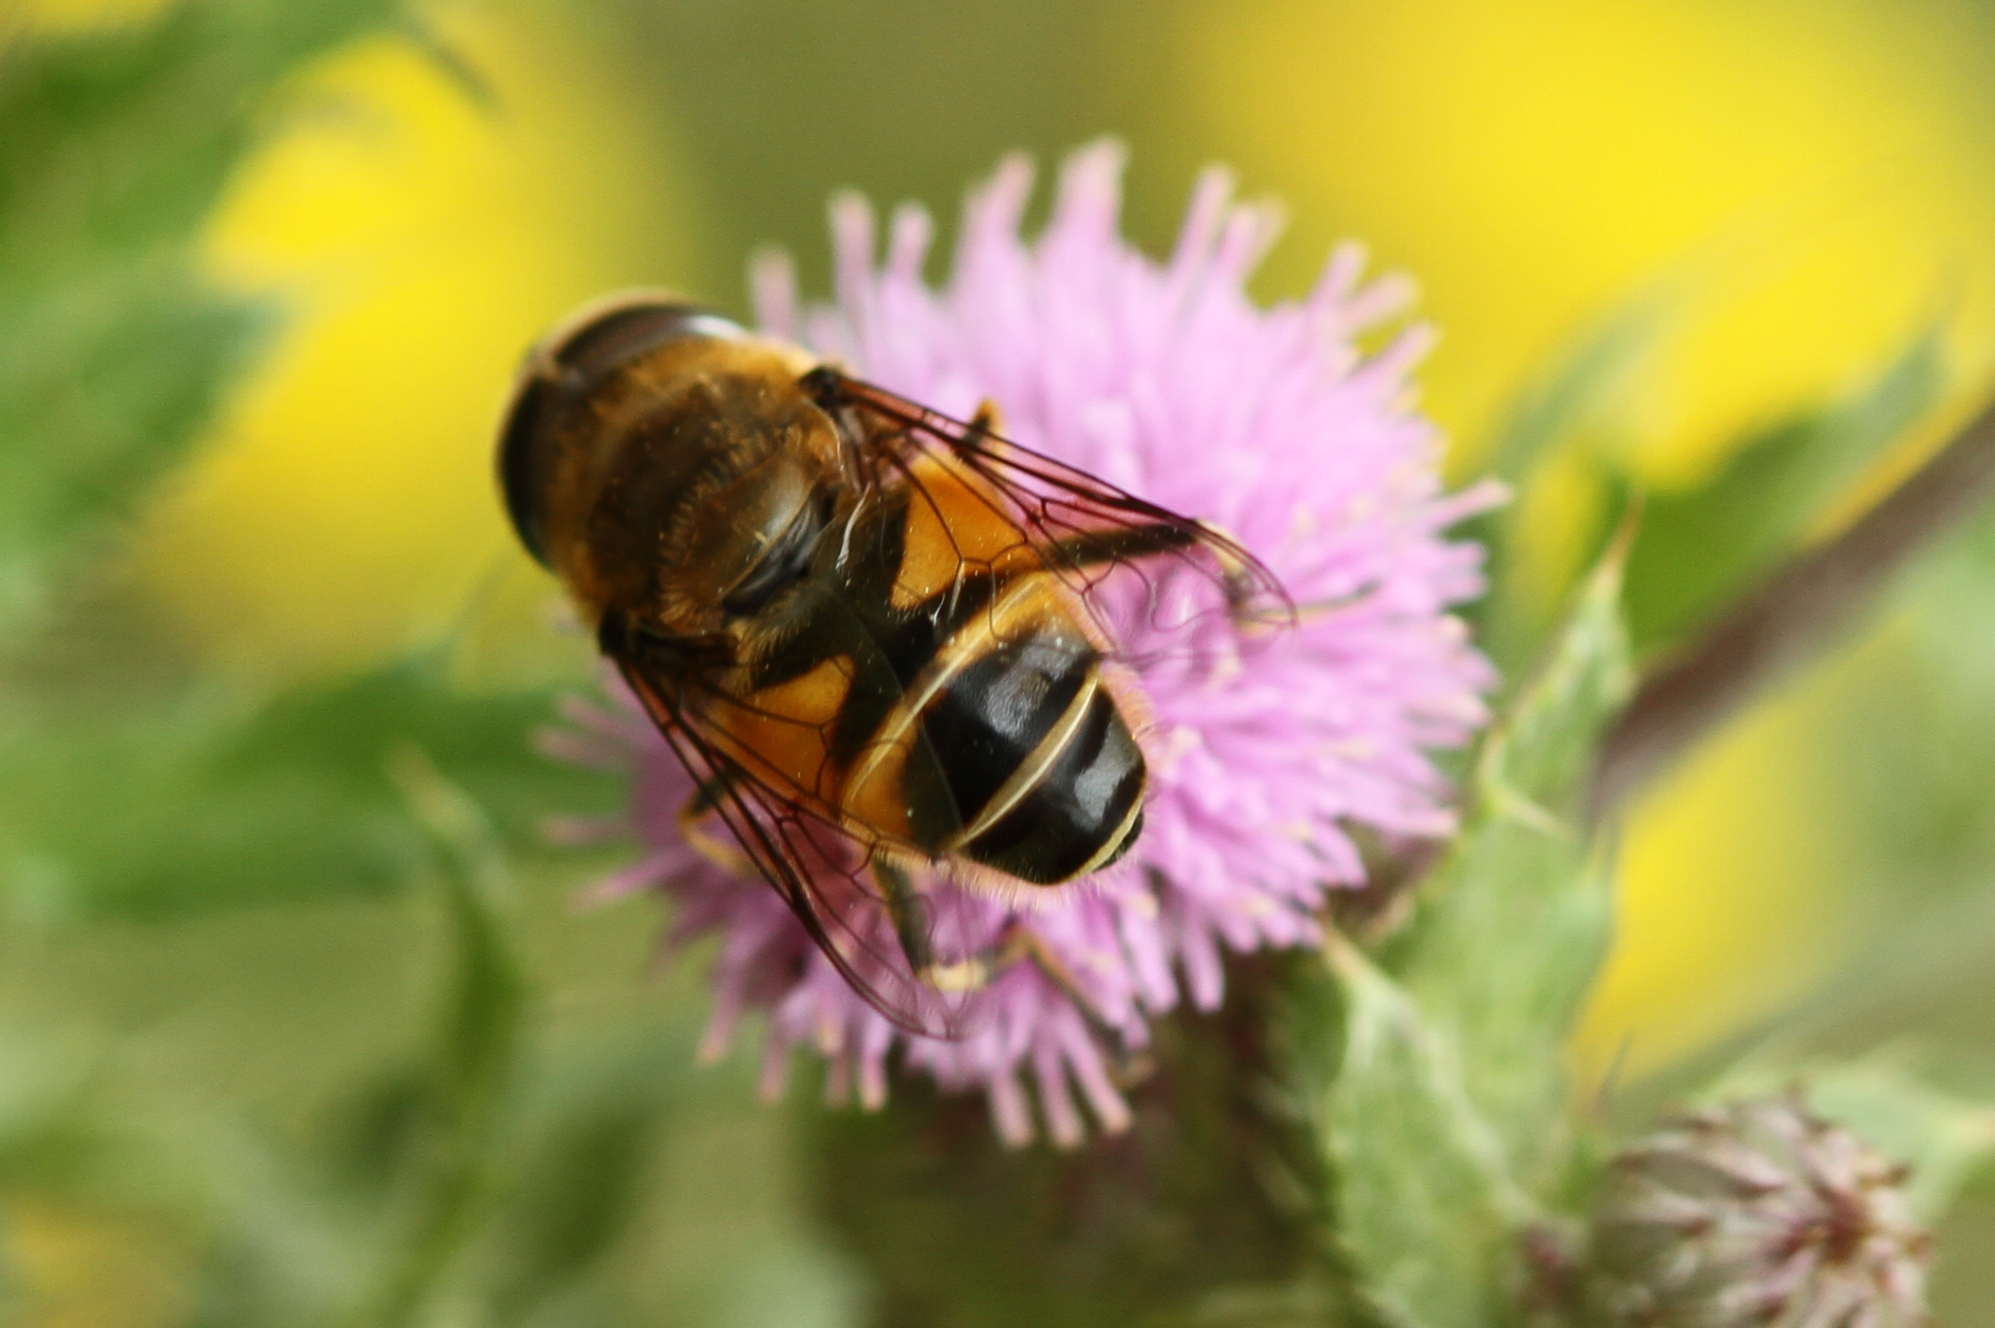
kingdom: Animalia
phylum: Arthropoda
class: Insecta
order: Diptera
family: Syrphidae
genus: Eristalis
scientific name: Eristalis tenax
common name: Drone fly
